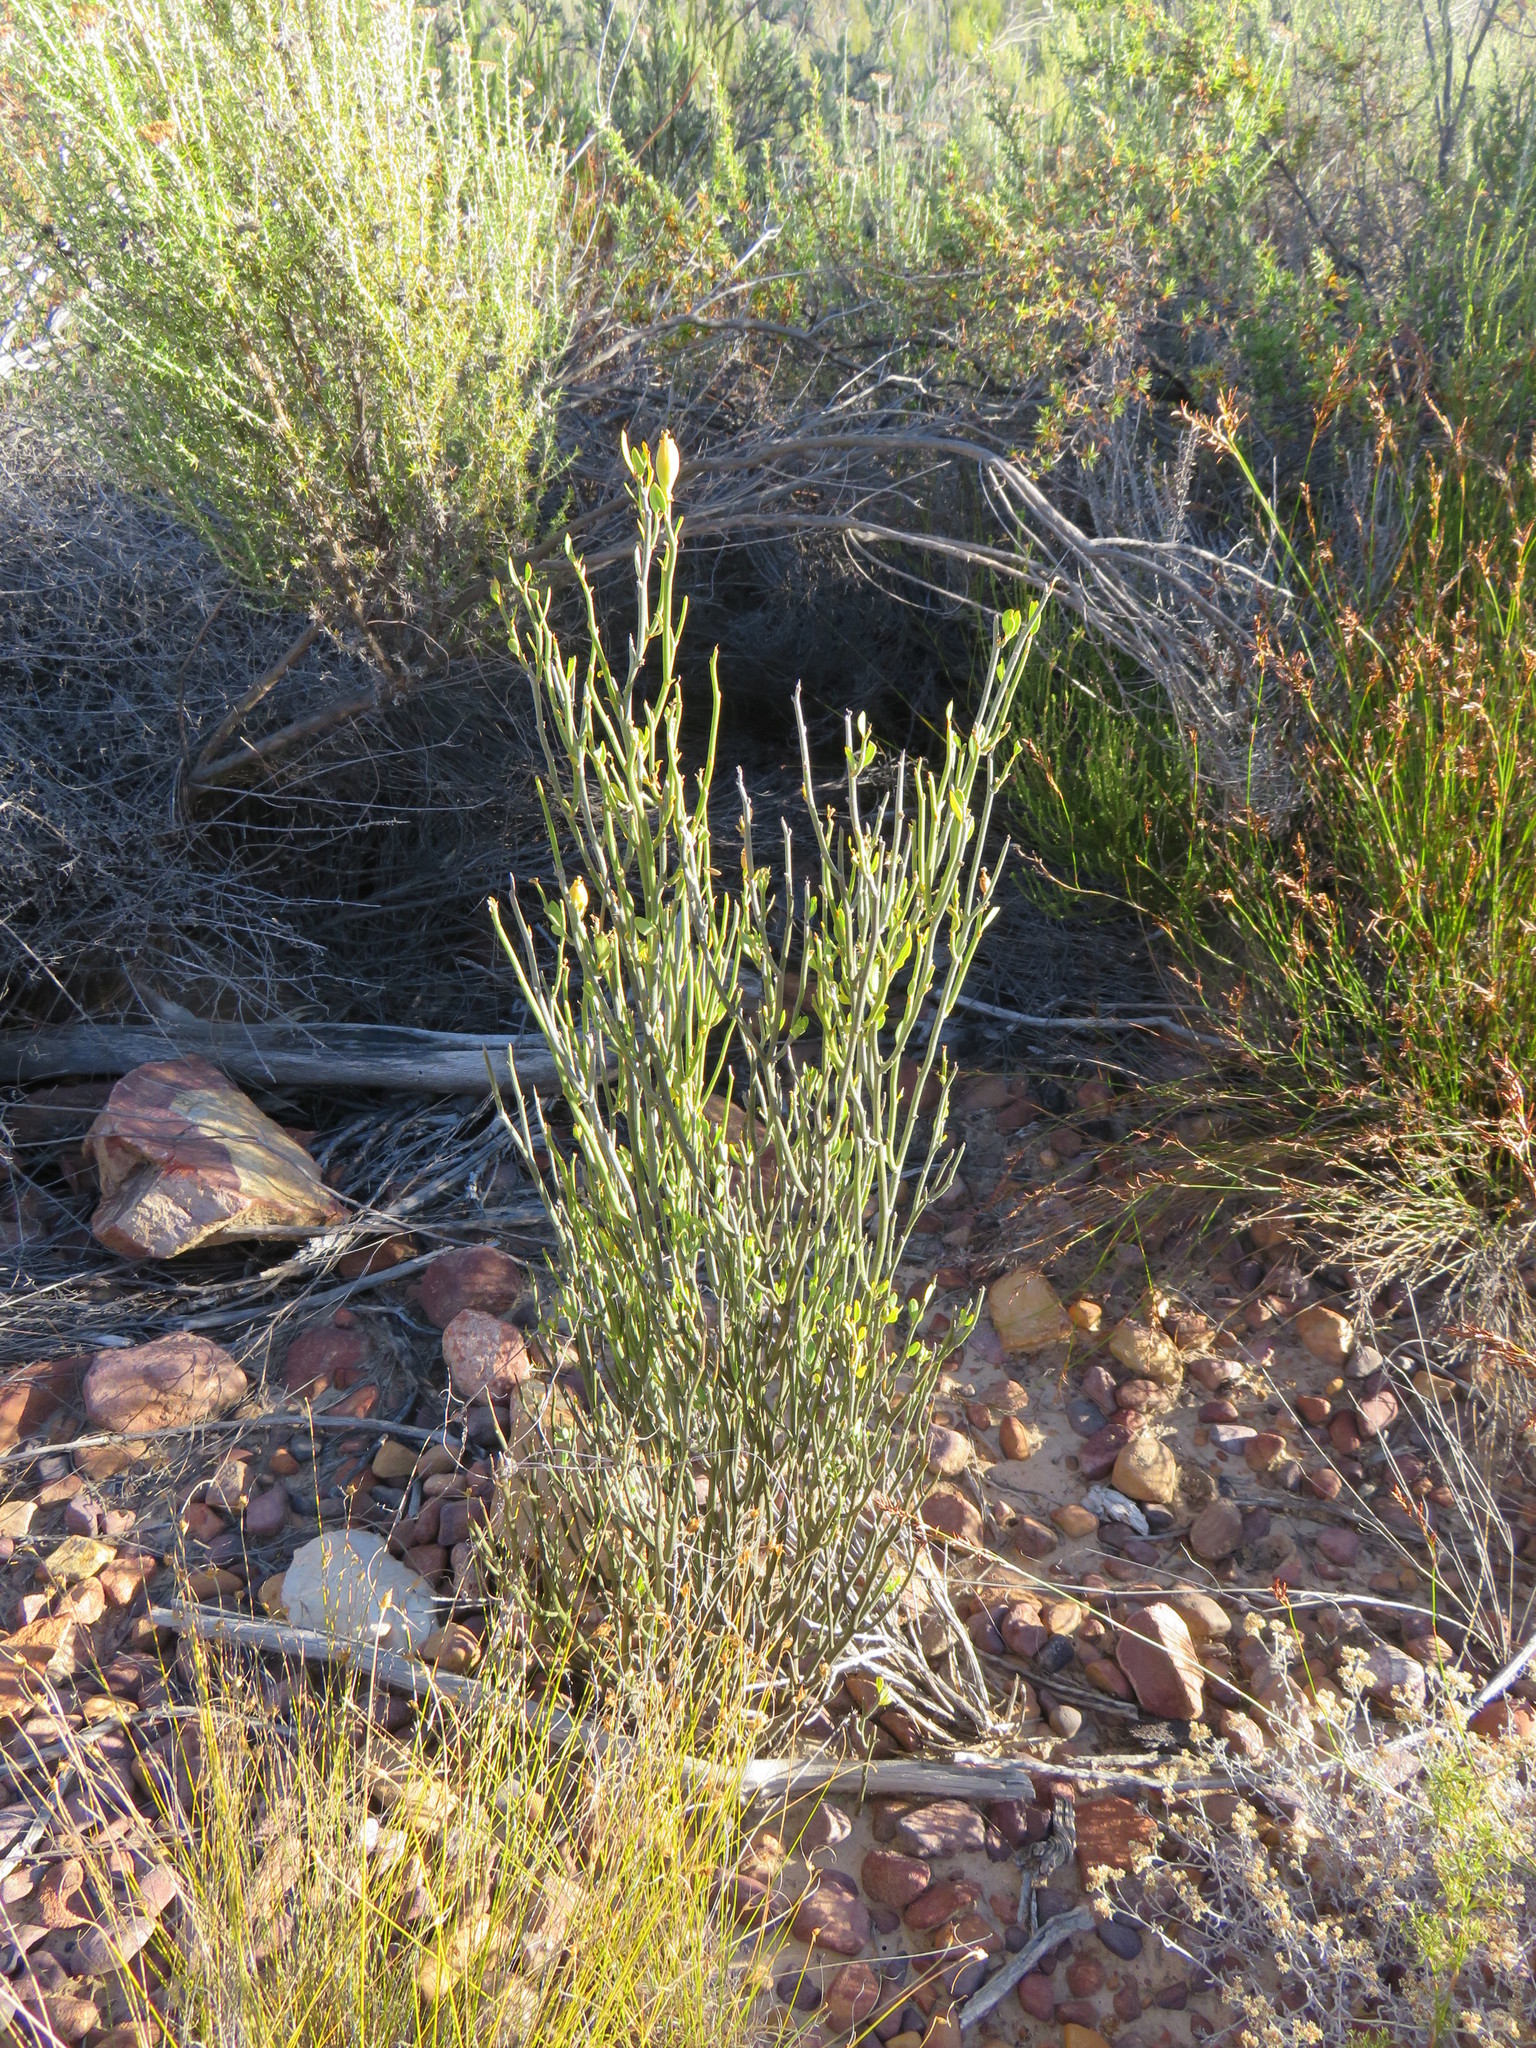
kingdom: Plantae
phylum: Tracheophyta
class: Magnoliopsida
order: Solanales
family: Montiniaceae
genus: Montinia
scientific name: Montinia caryophyllacea
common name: Wild clove-bush
